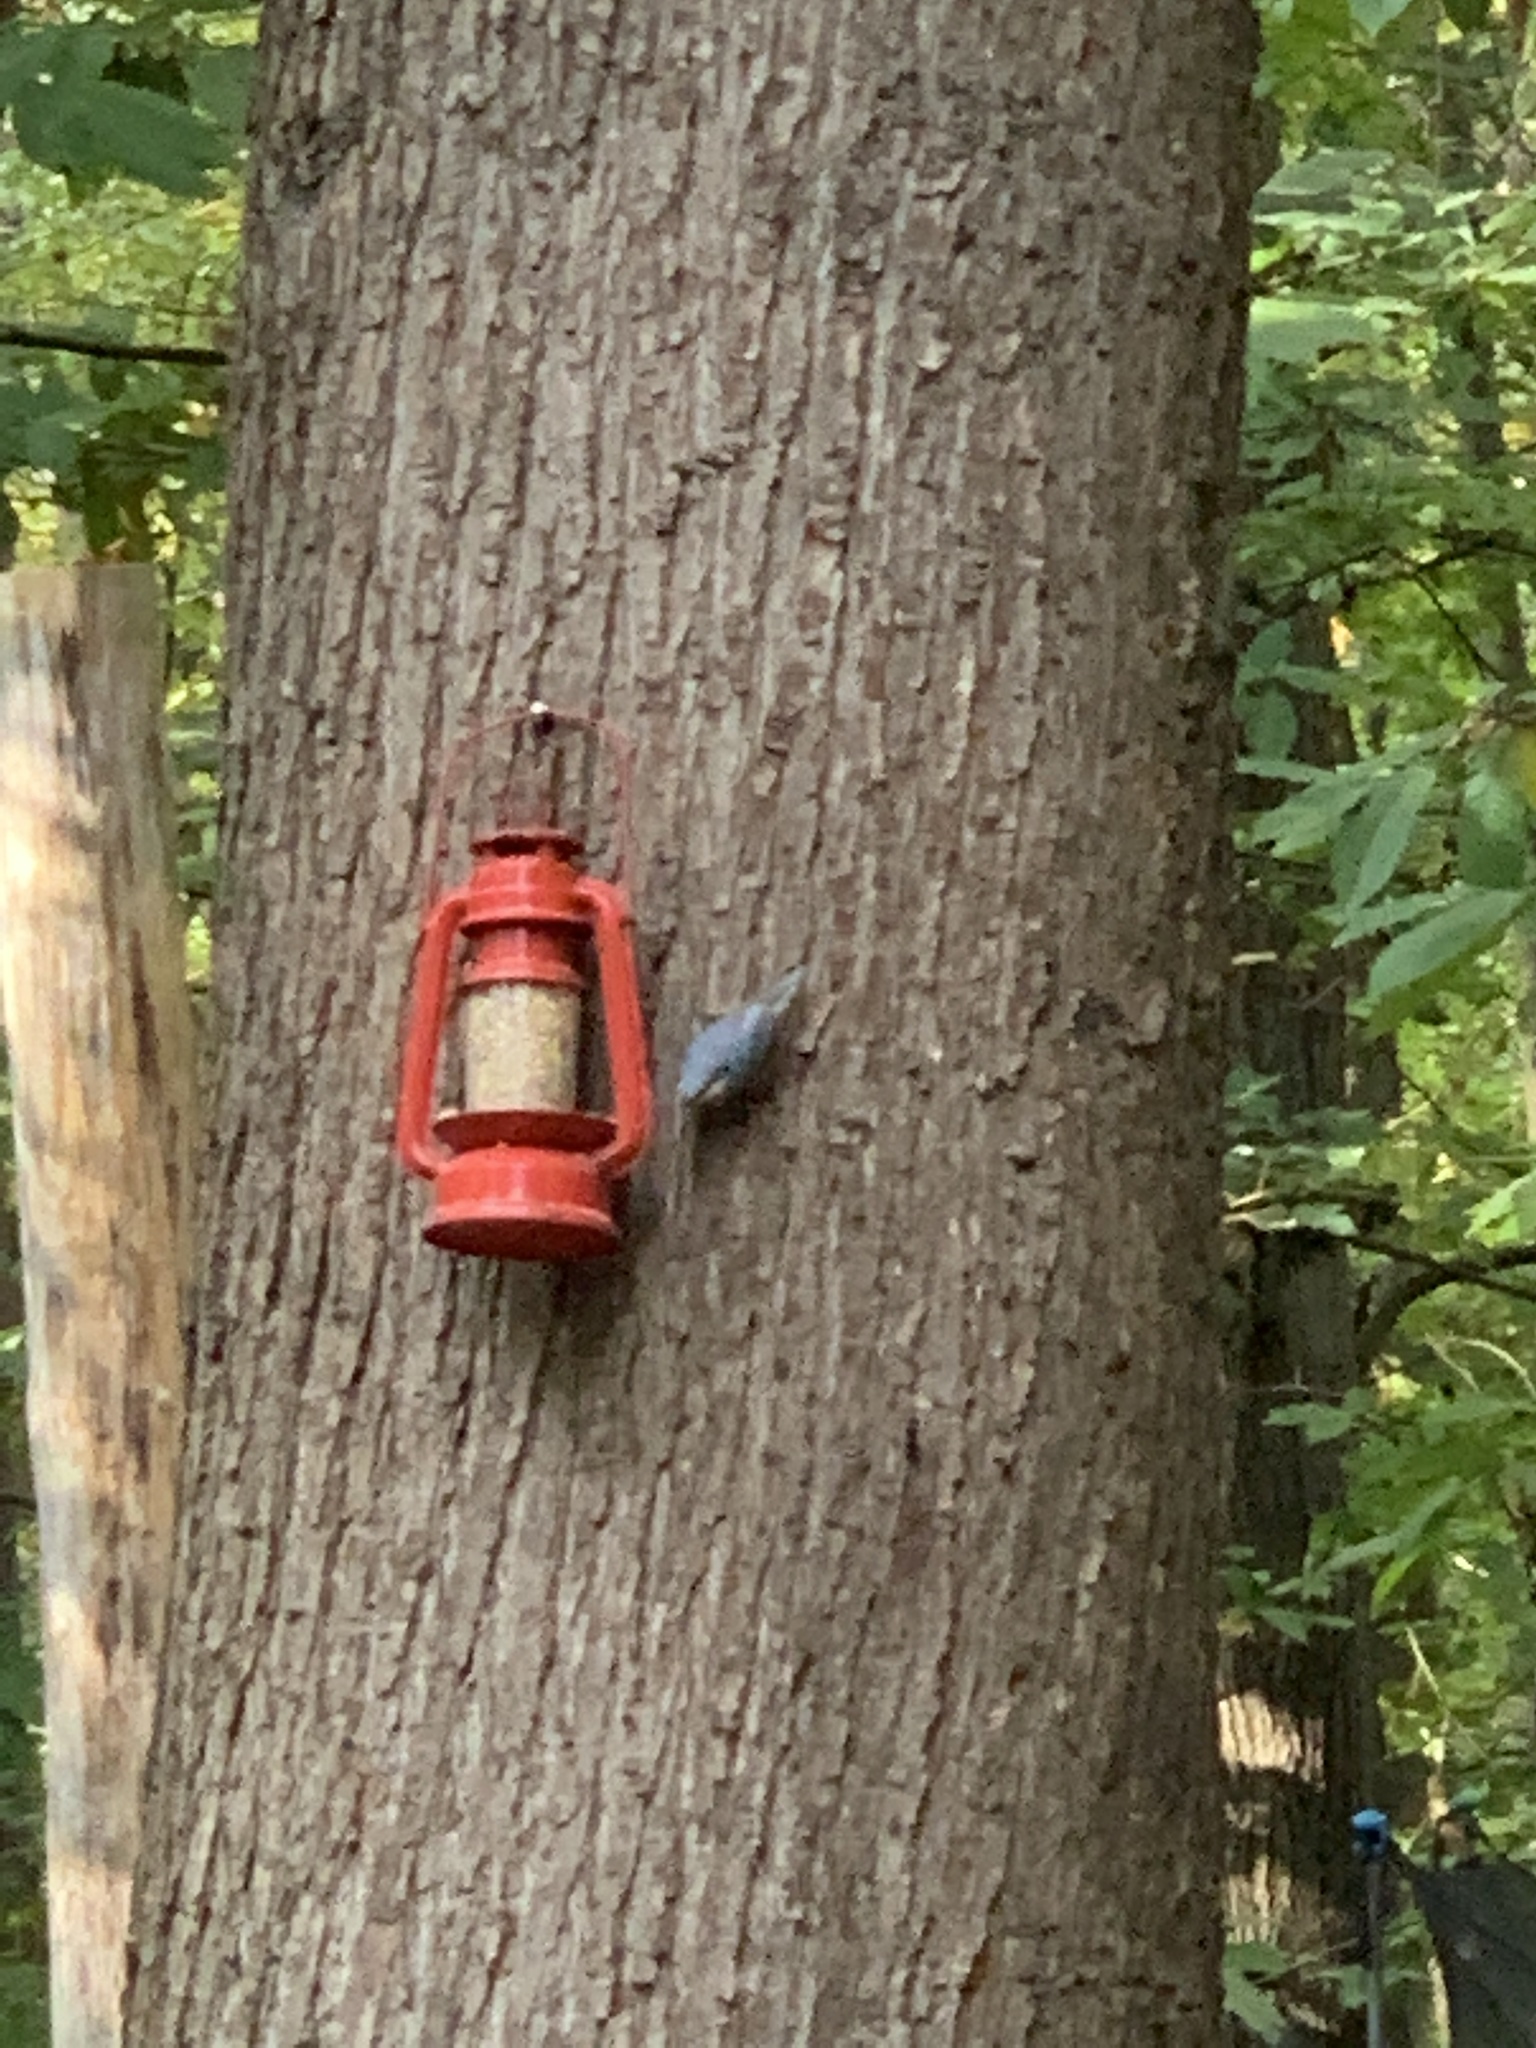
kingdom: Animalia
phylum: Chordata
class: Aves
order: Passeriformes
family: Sittidae
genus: Sitta
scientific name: Sitta europaea
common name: Eurasian nuthatch
